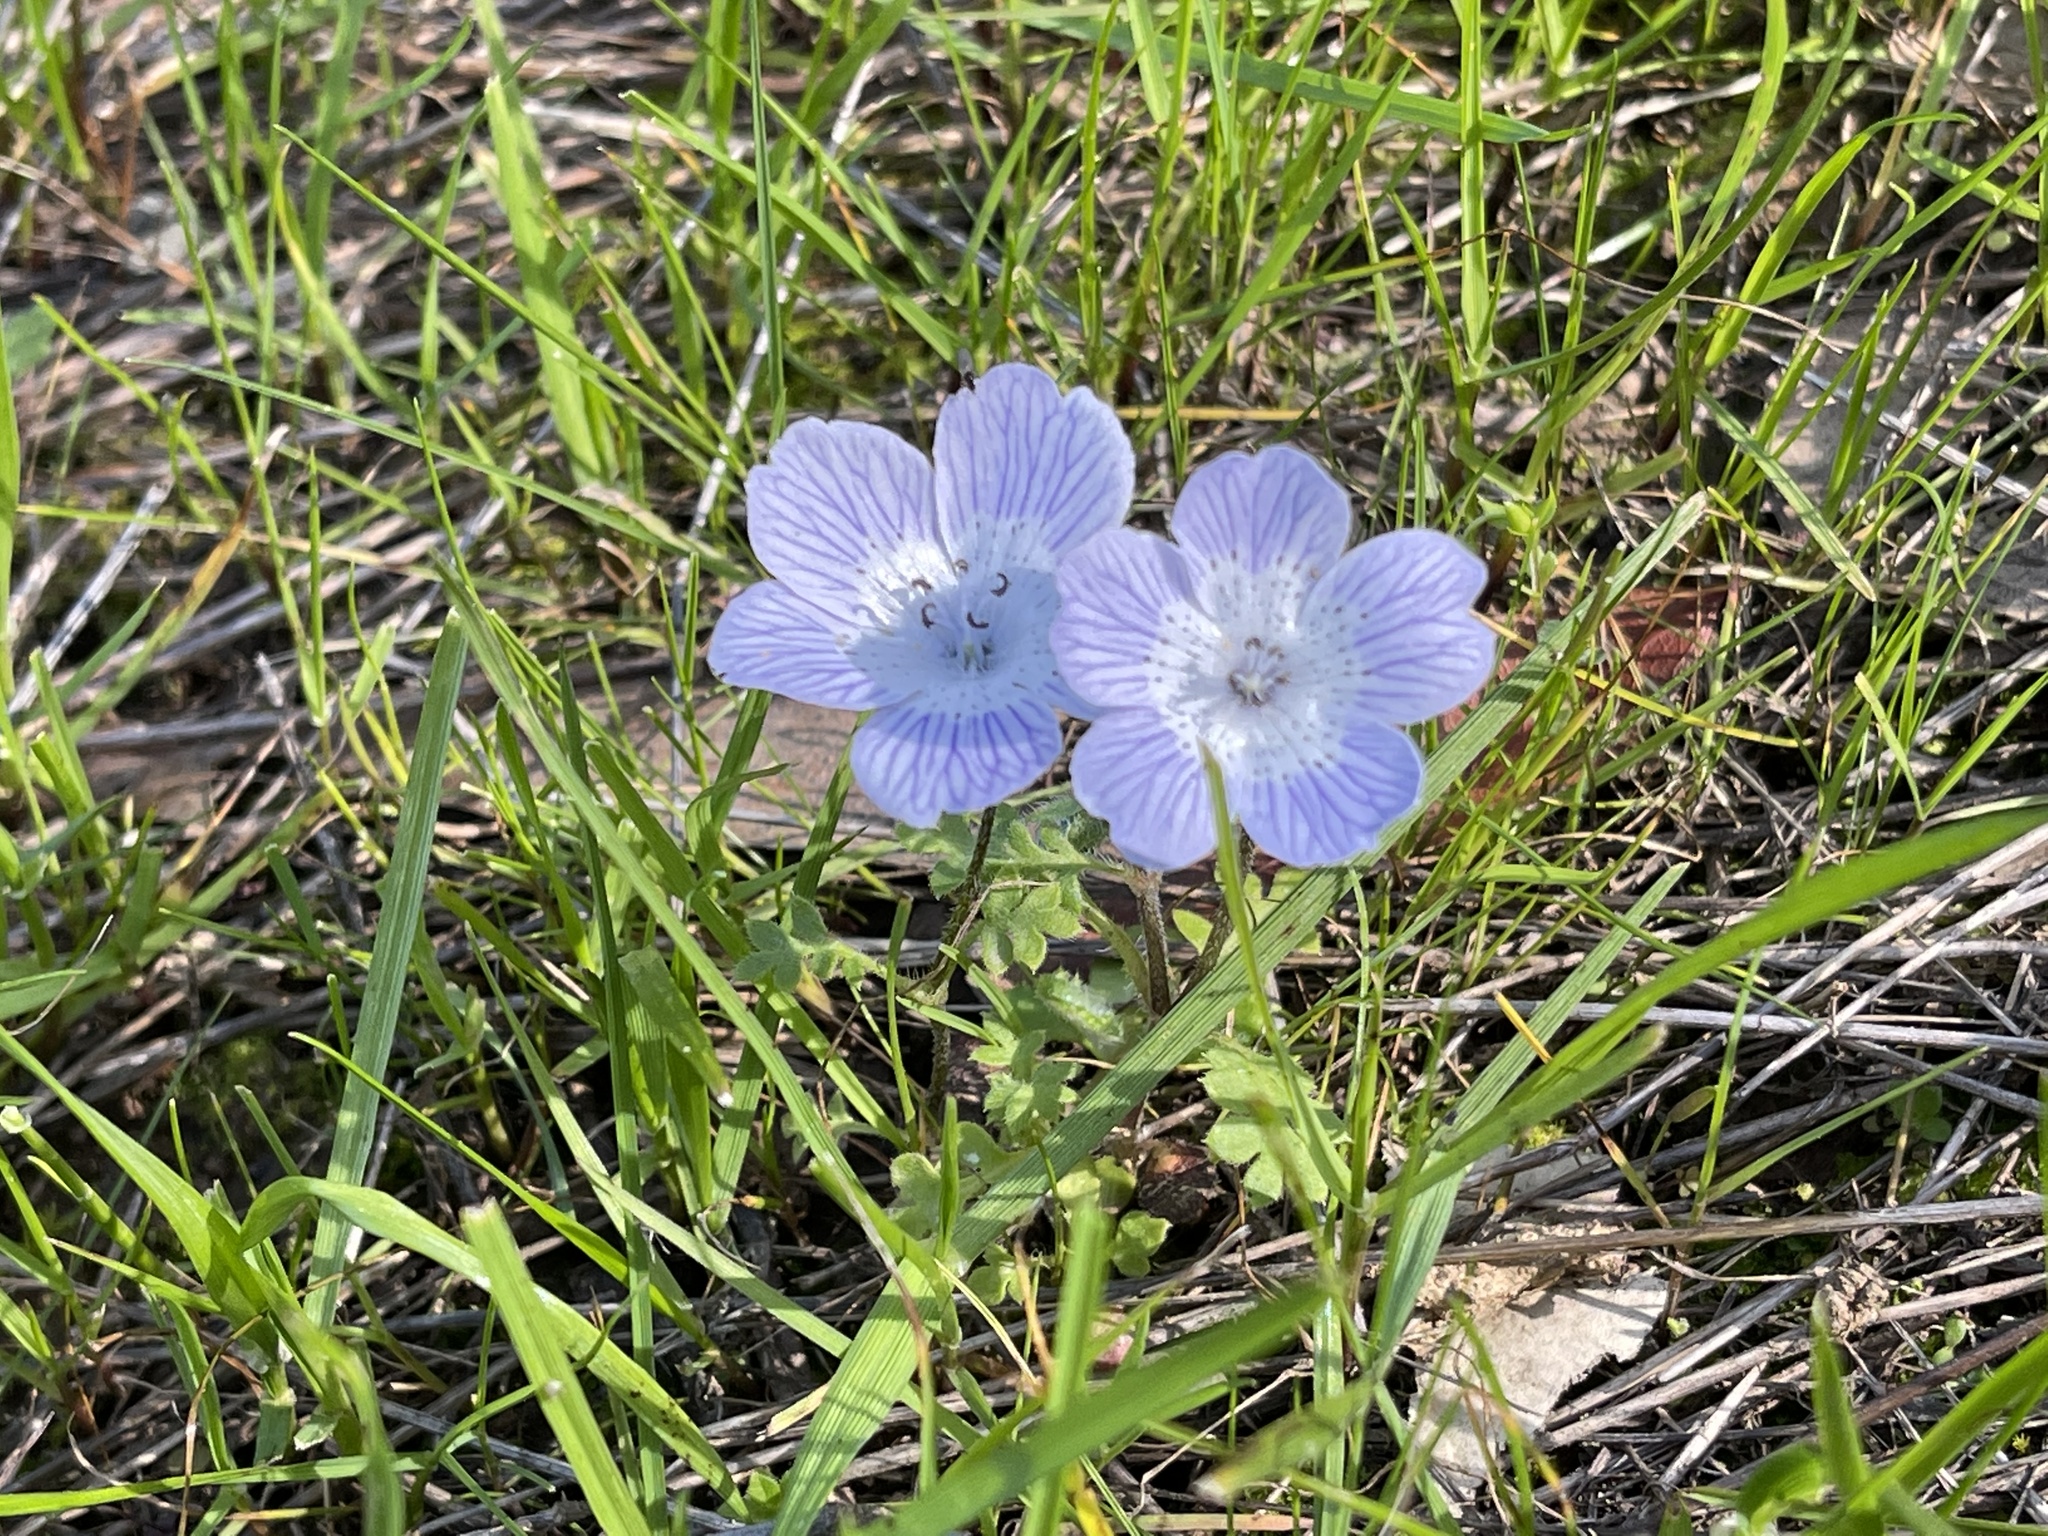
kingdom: Plantae
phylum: Tracheophyta
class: Magnoliopsida
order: Boraginales
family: Hydrophyllaceae
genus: Nemophila
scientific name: Nemophila menziesii
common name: Baby's-blue-eyes
